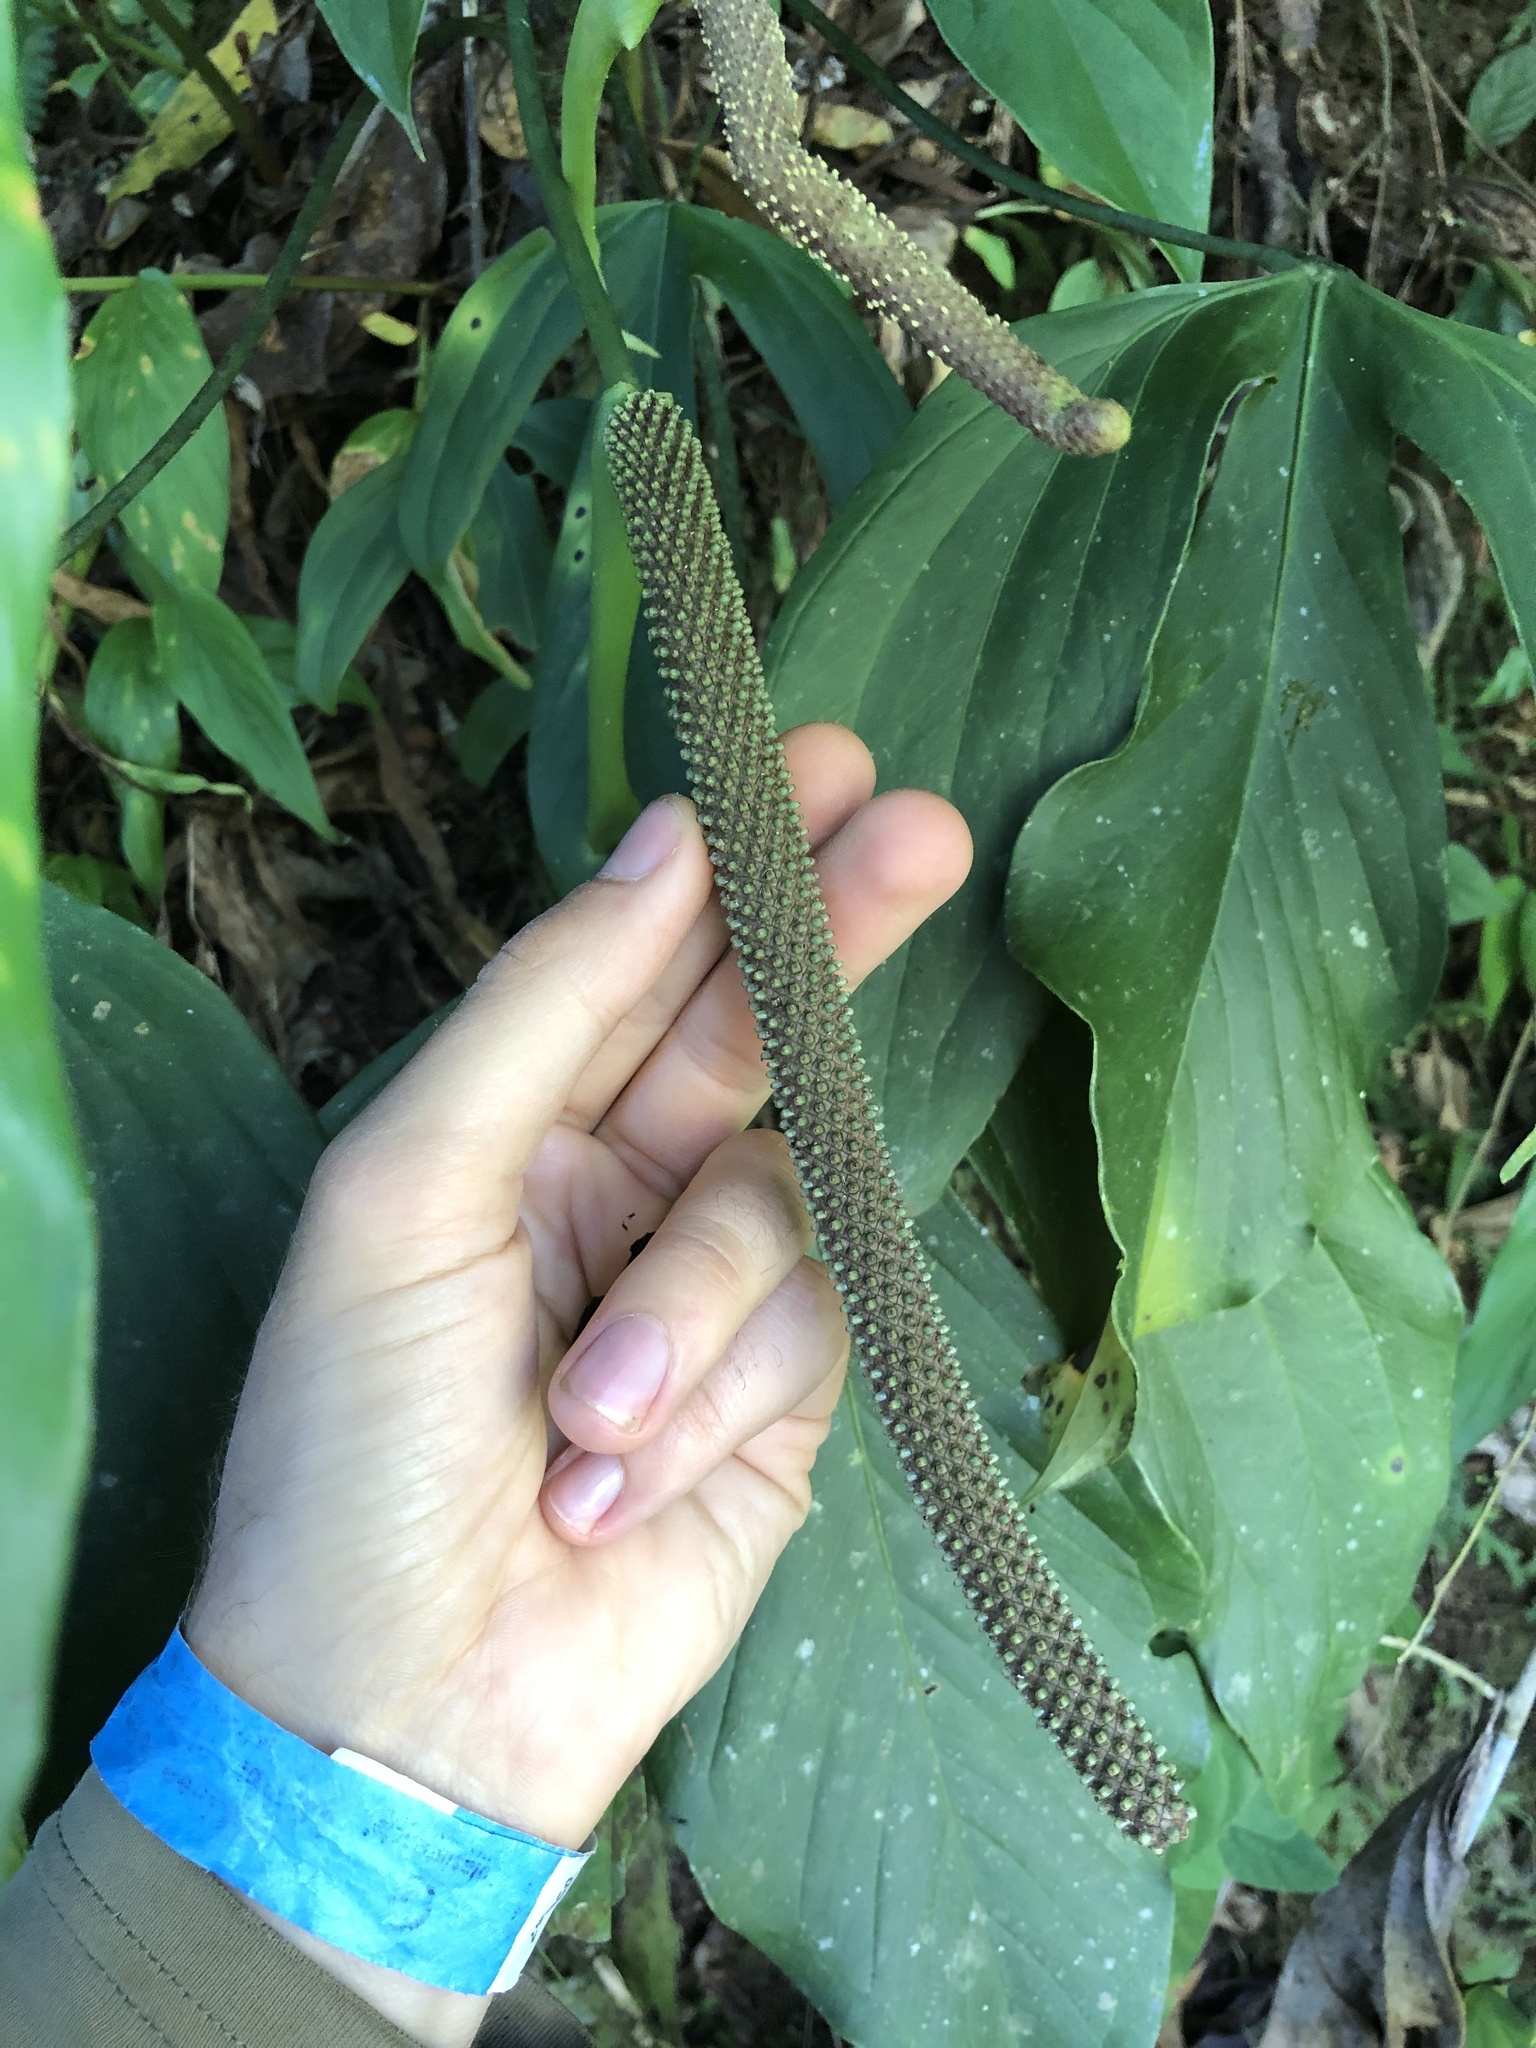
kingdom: Plantae
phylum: Tracheophyta
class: Liliopsida
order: Alismatales
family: Araceae
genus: Anthurium
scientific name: Anthurium alatum
